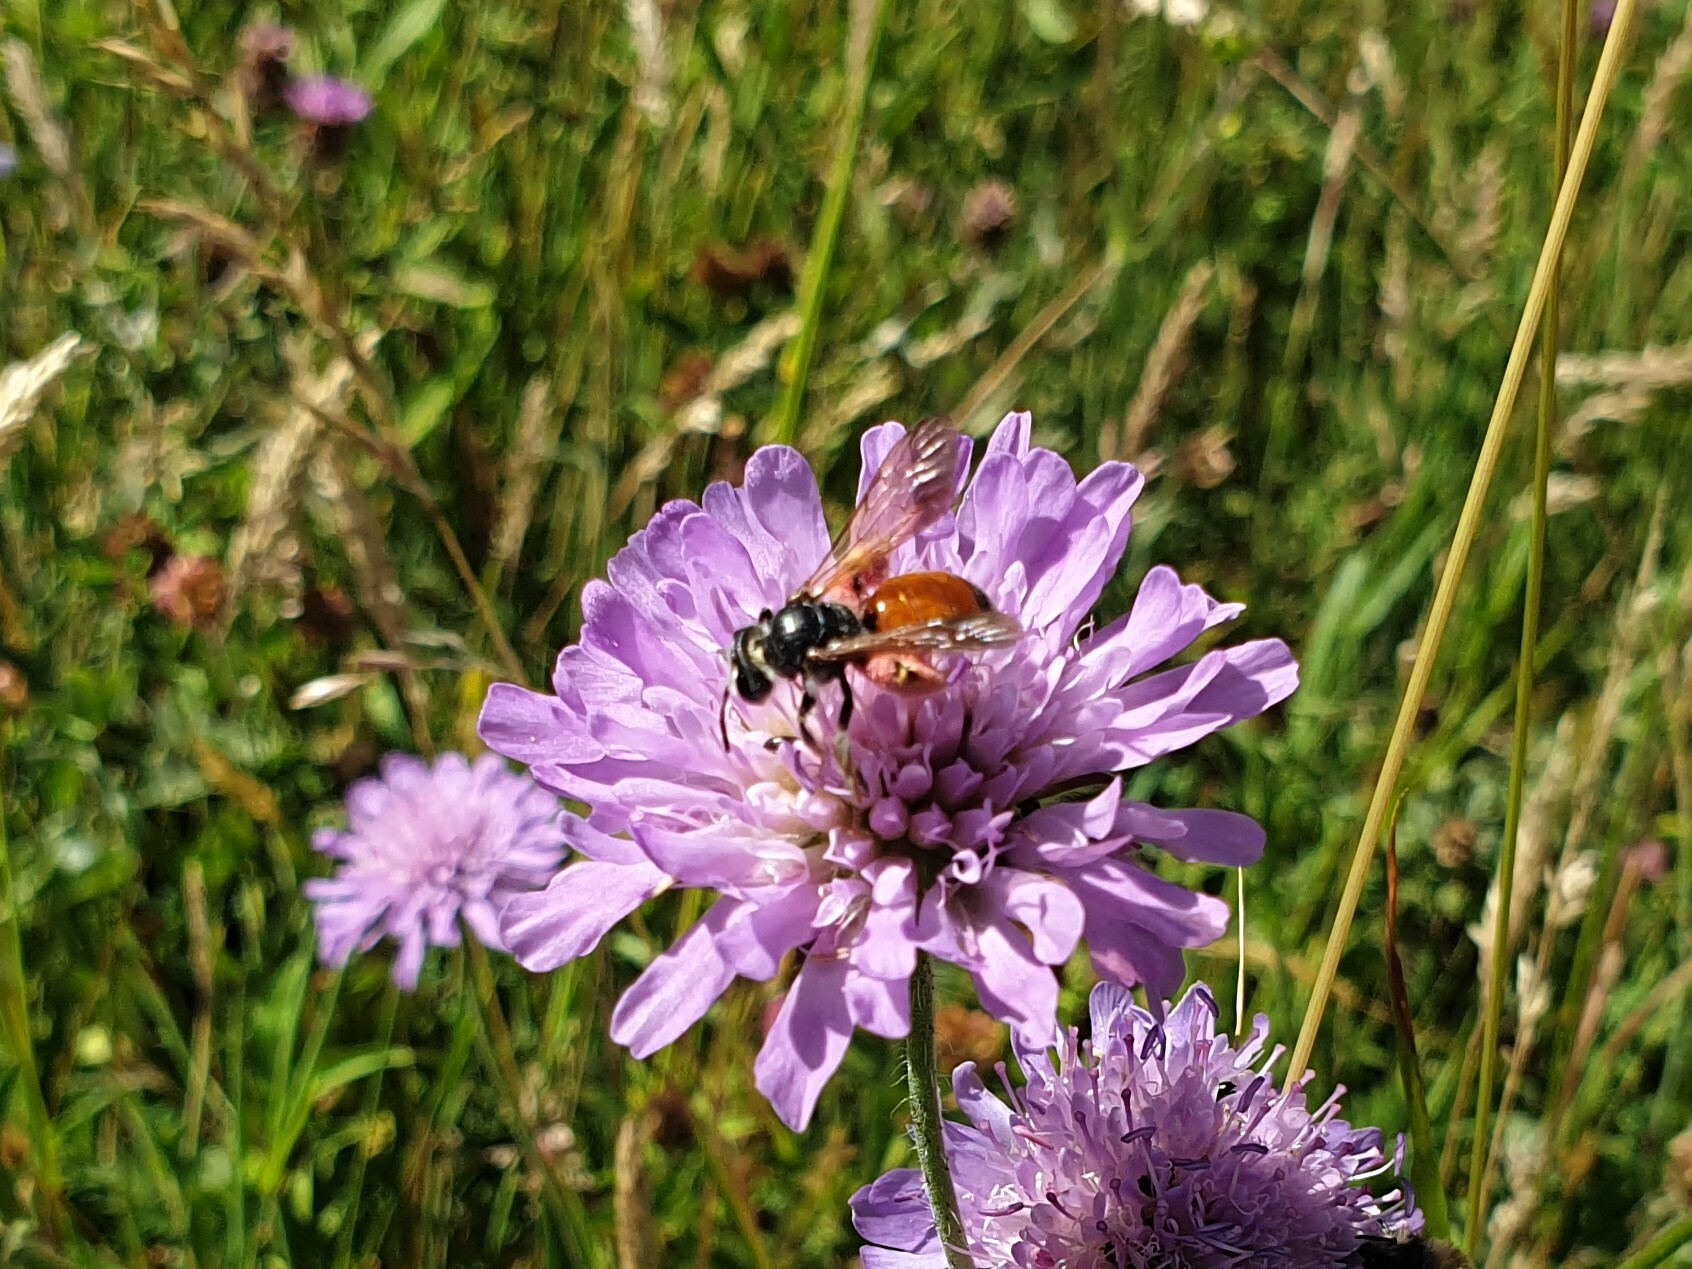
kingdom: Animalia
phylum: Arthropoda
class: Insecta
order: Hymenoptera
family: Andrenidae
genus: Andrena
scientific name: Andrena hattorfiana
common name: Large scabious mining bee
